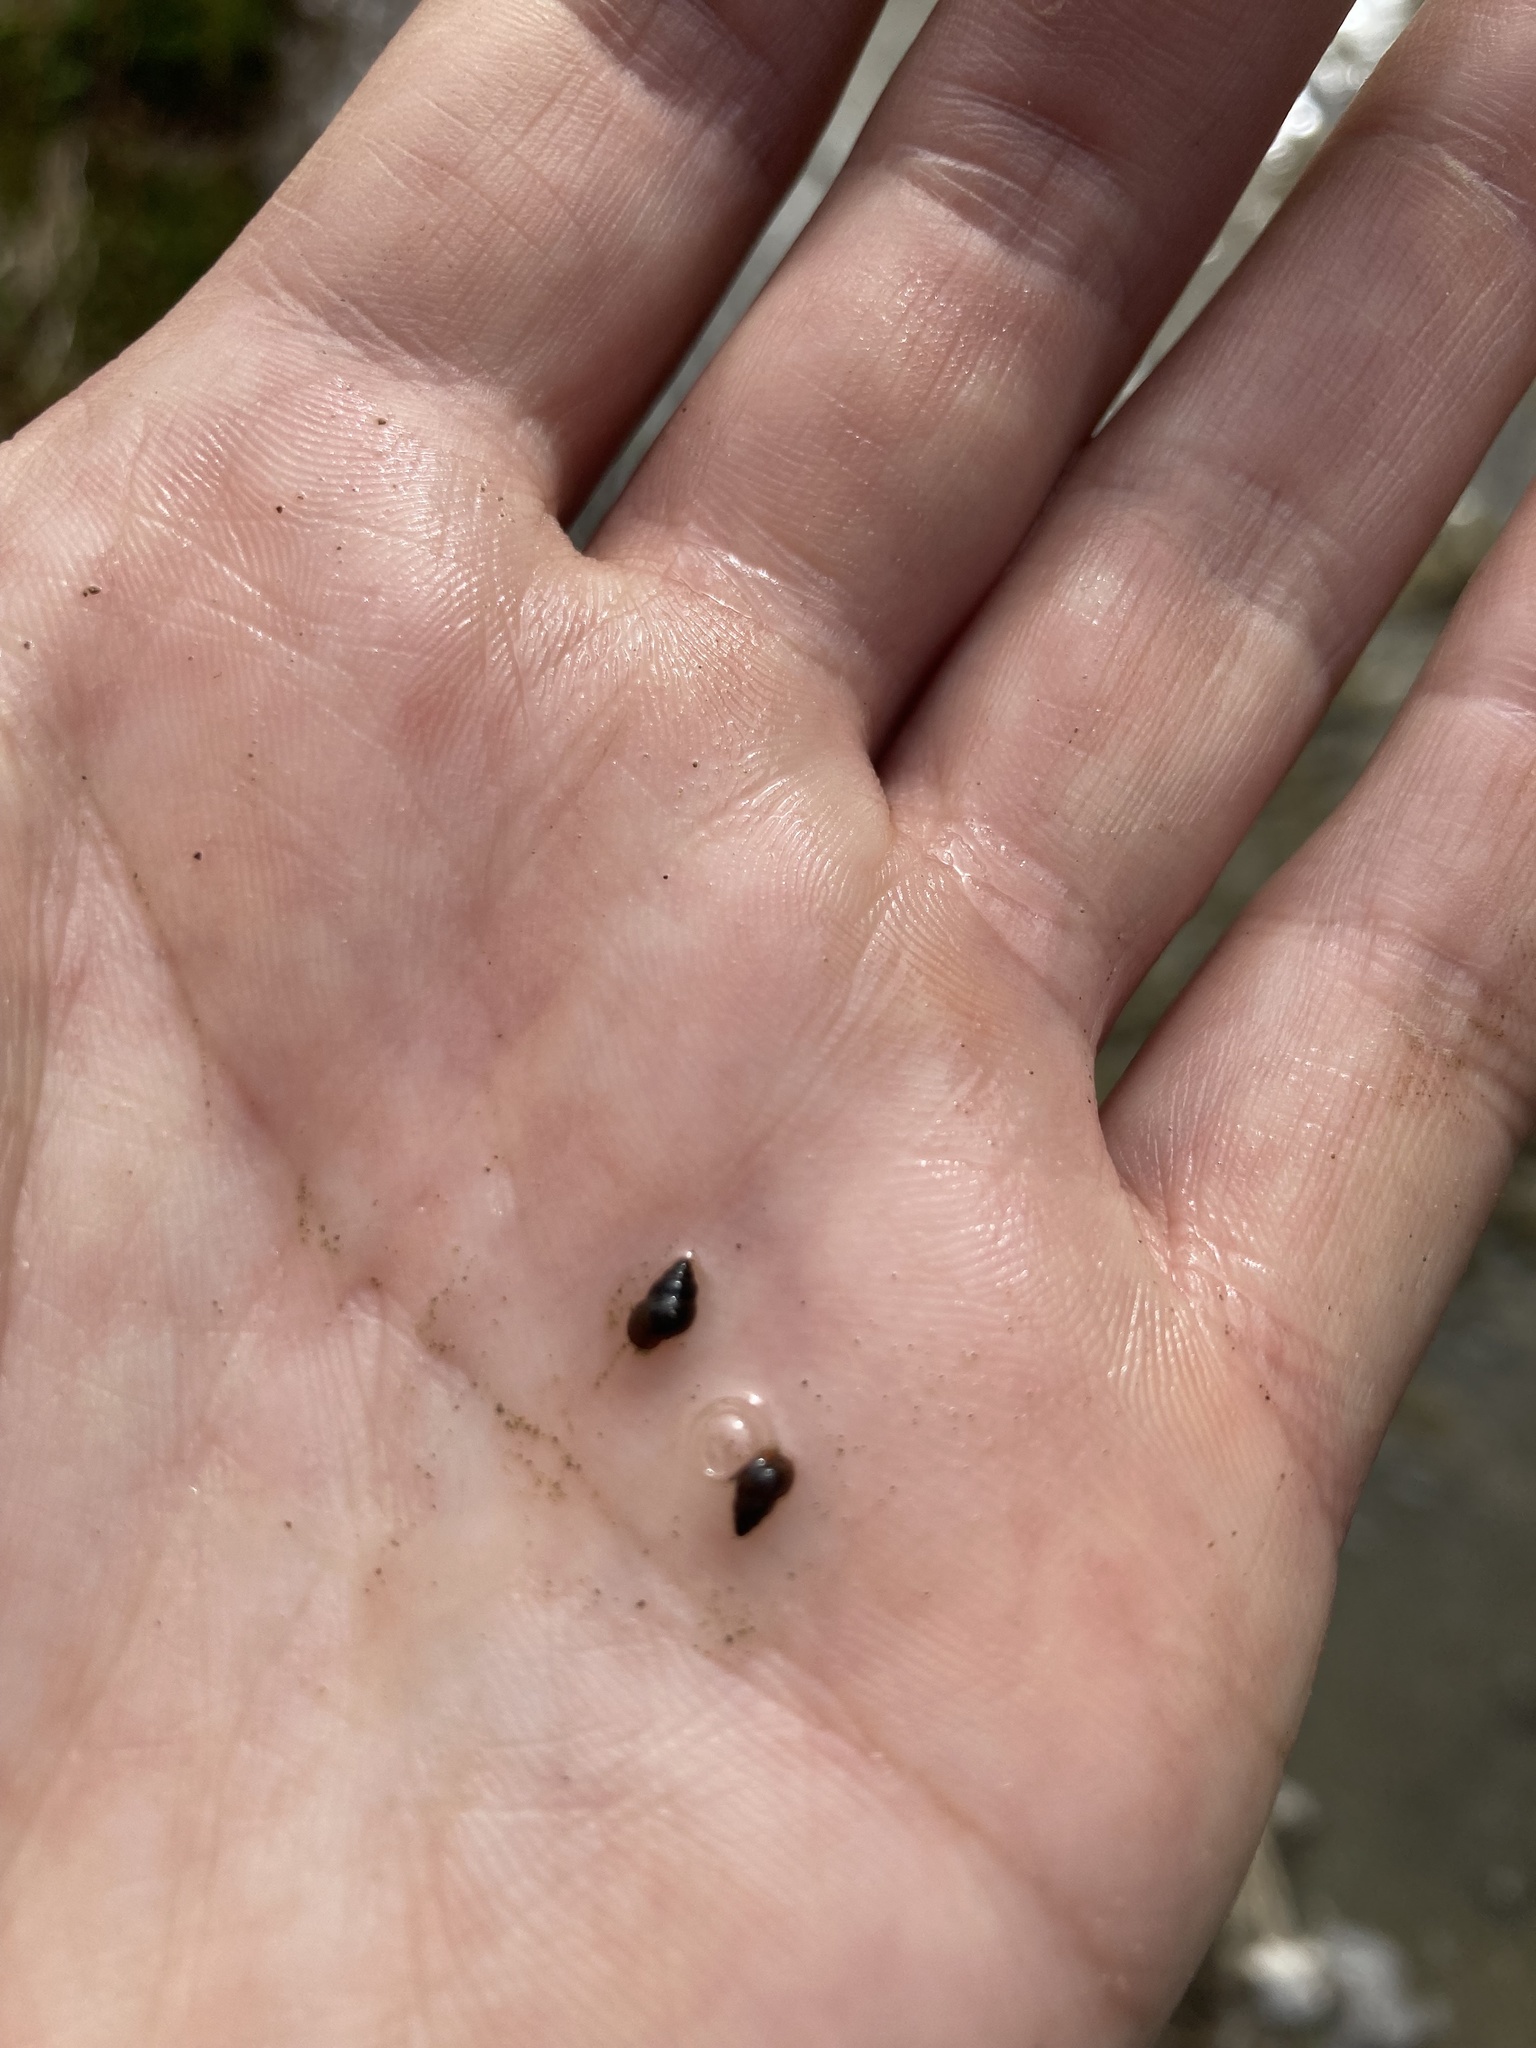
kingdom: Animalia
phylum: Mollusca
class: Gastropoda
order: Littorinimorpha
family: Tateidae
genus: Potamopyrgus
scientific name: Potamopyrgus antipodarum
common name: Jenkins' spire snail
